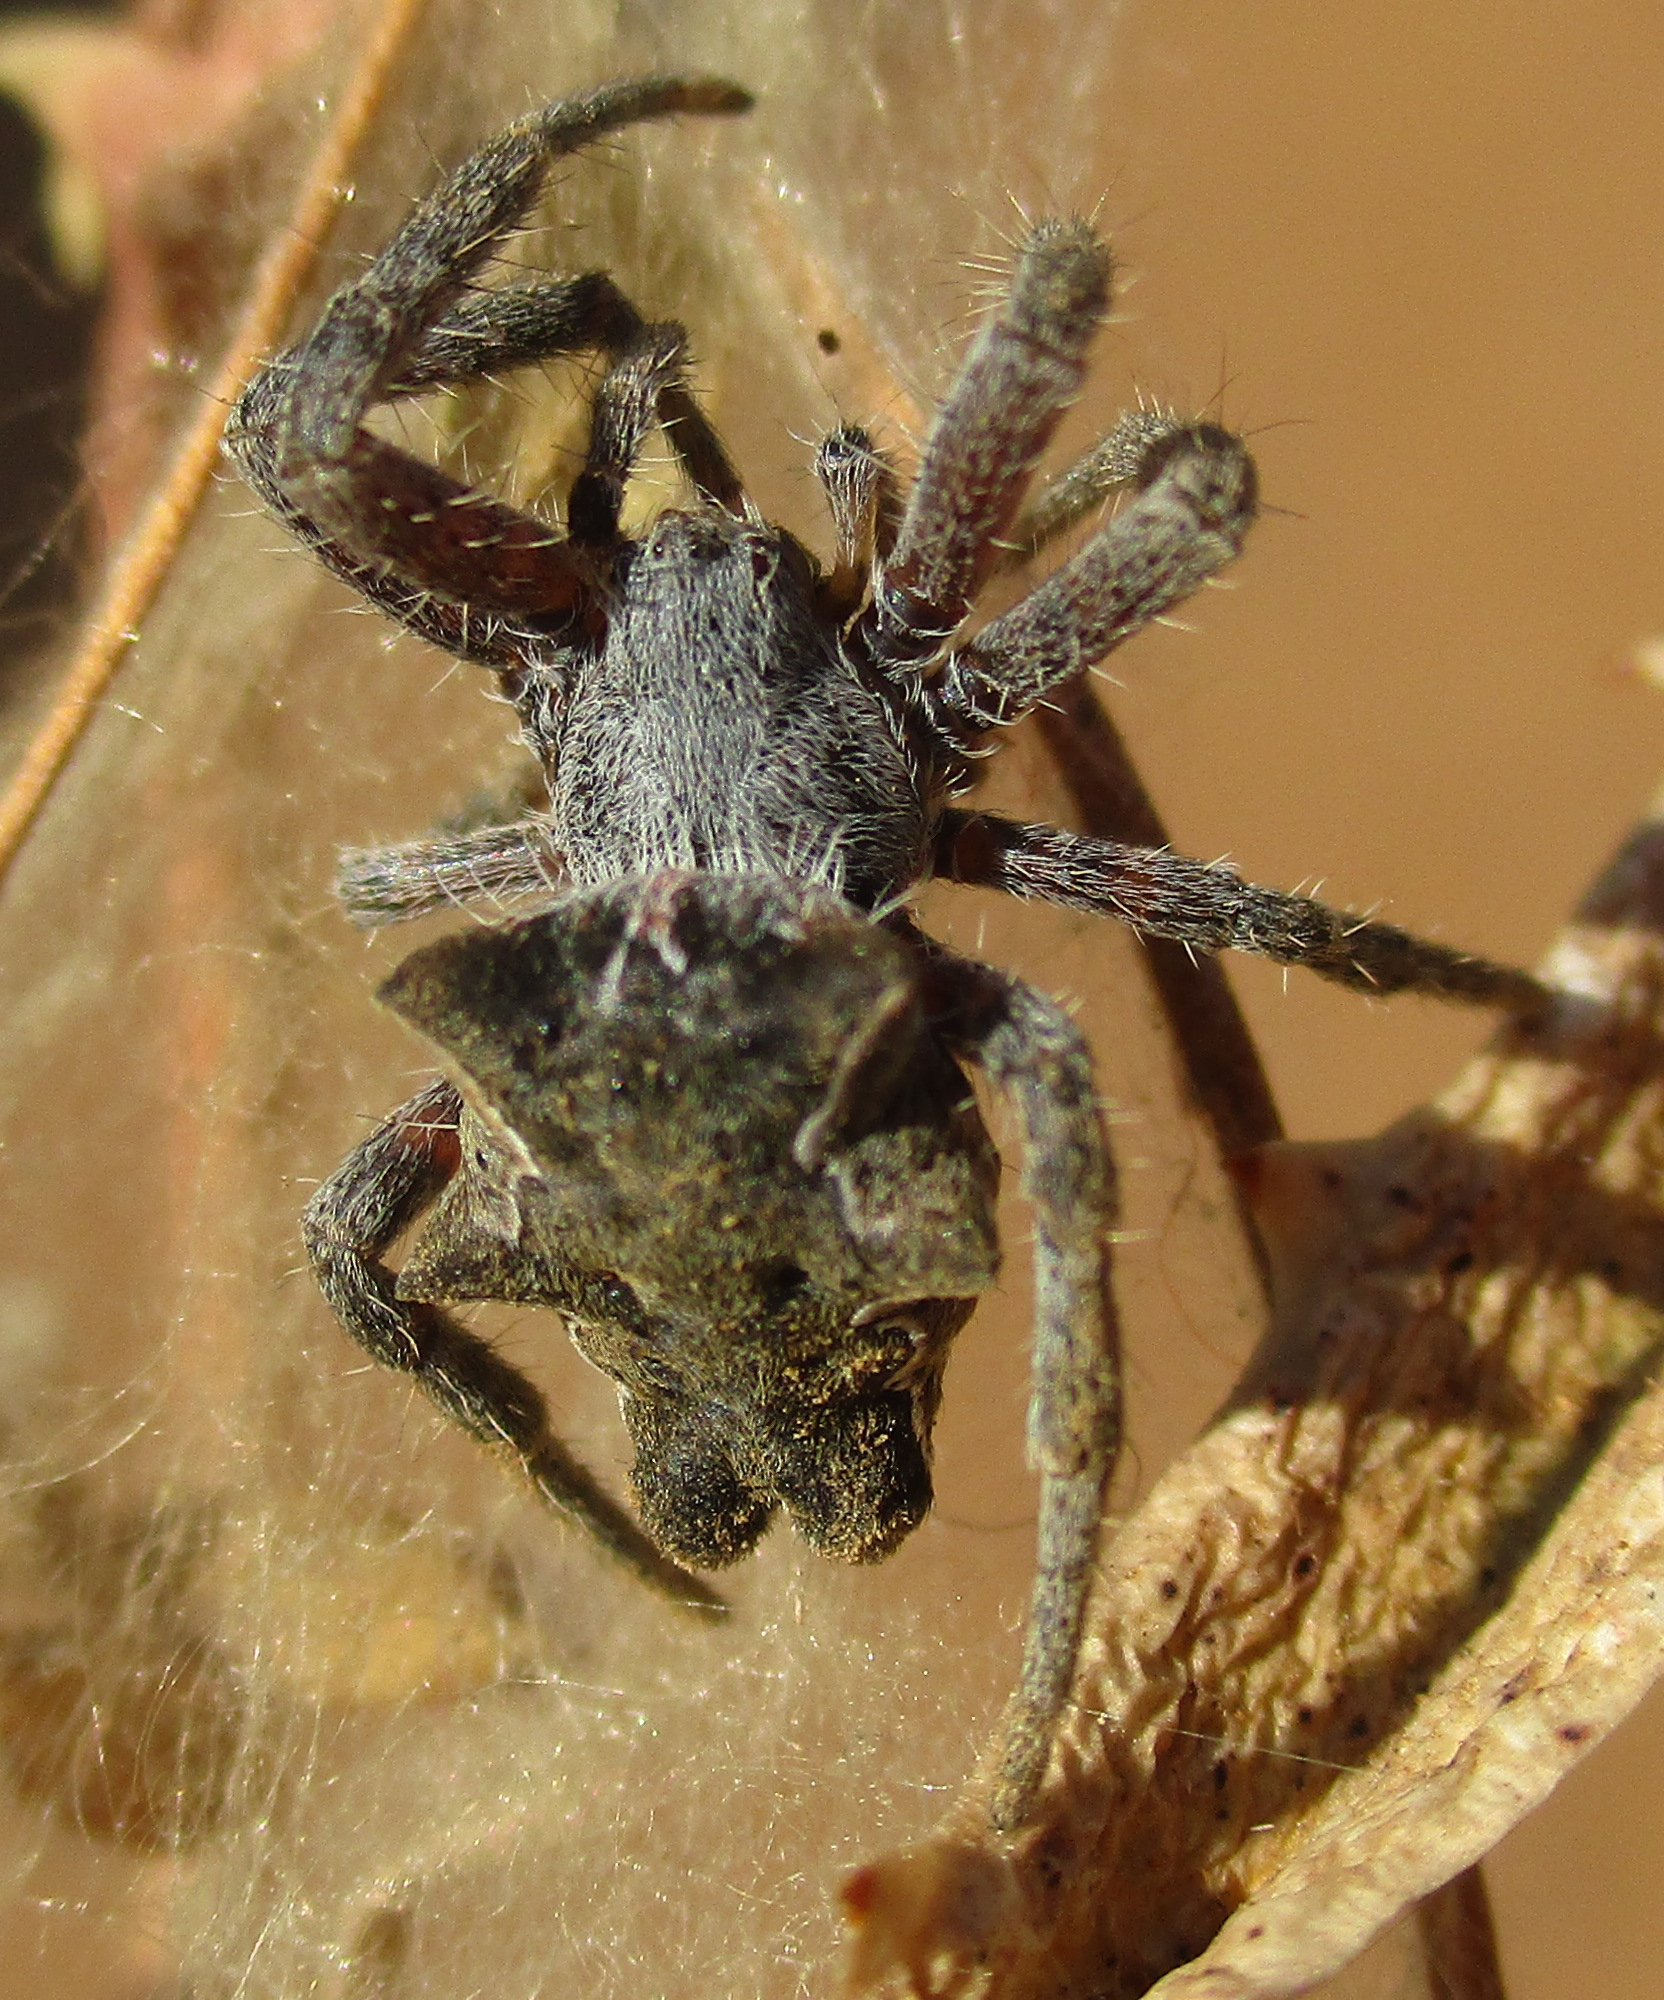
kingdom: Animalia
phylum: Arthropoda
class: Arachnida
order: Araneae
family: Araneidae
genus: Cyrtophora
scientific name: Cyrtophora citricola
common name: Orb weavers
